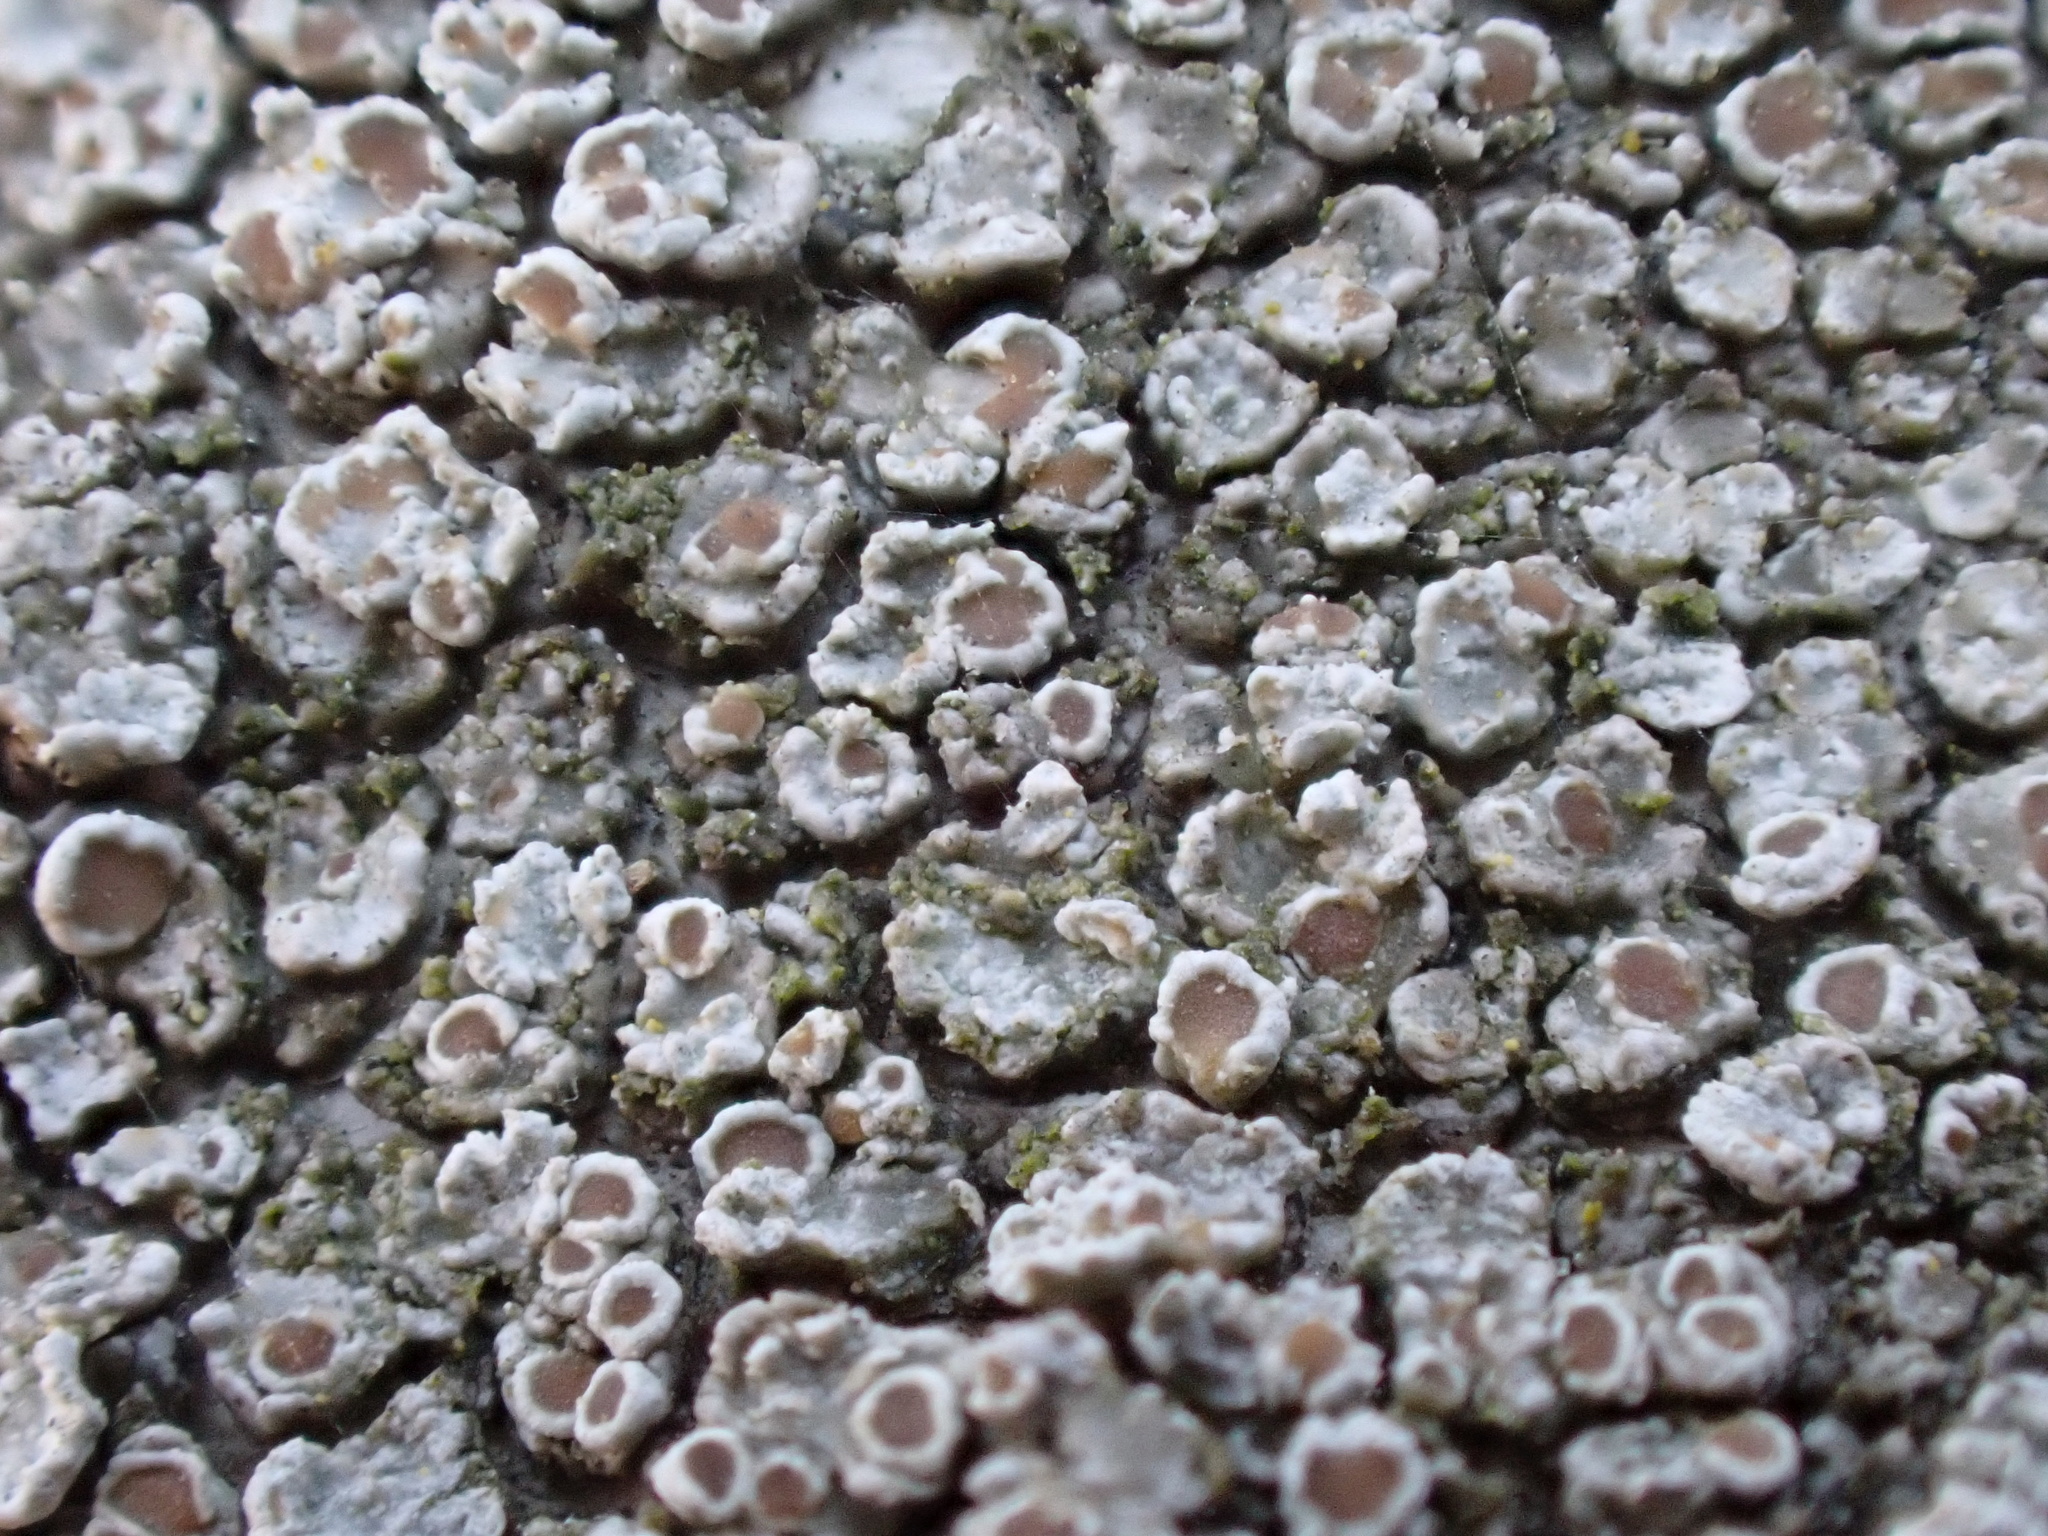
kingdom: Fungi
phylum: Ascomycota
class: Lecanoromycetes
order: Lecanorales
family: Lecanoraceae
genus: Lecanora
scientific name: Lecanora chlarotera
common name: Brown rim-lichen
